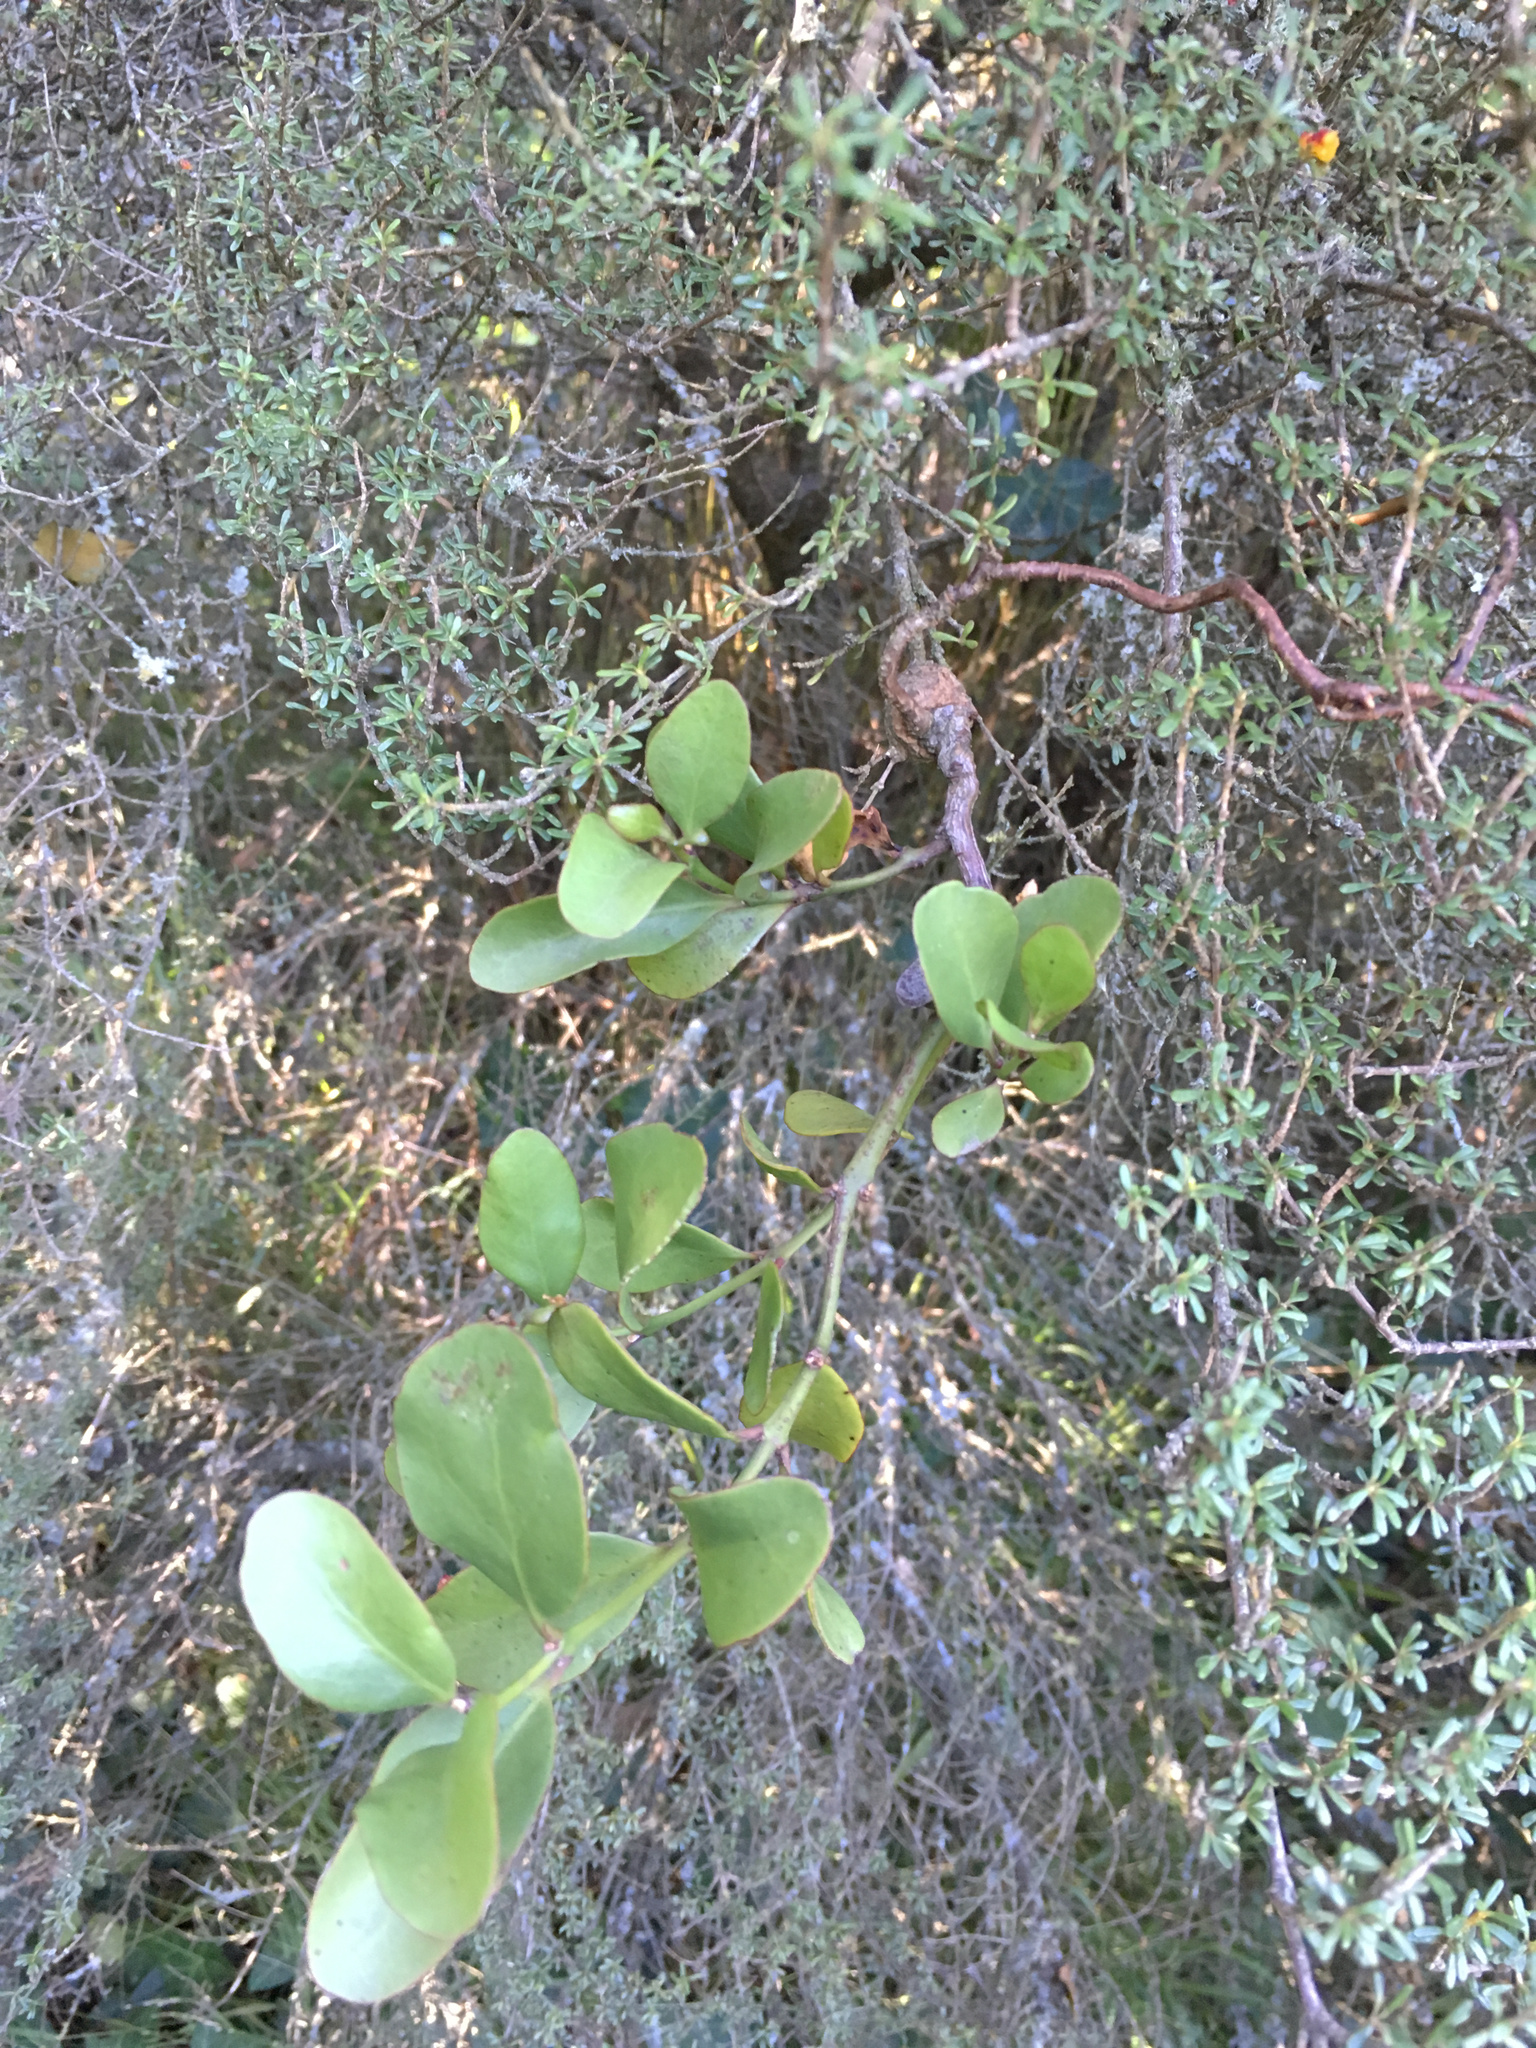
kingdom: Plantae
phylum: Tracheophyta
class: Magnoliopsida
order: Santalales
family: Loranthaceae
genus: Ileostylus
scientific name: Ileostylus micranthus
